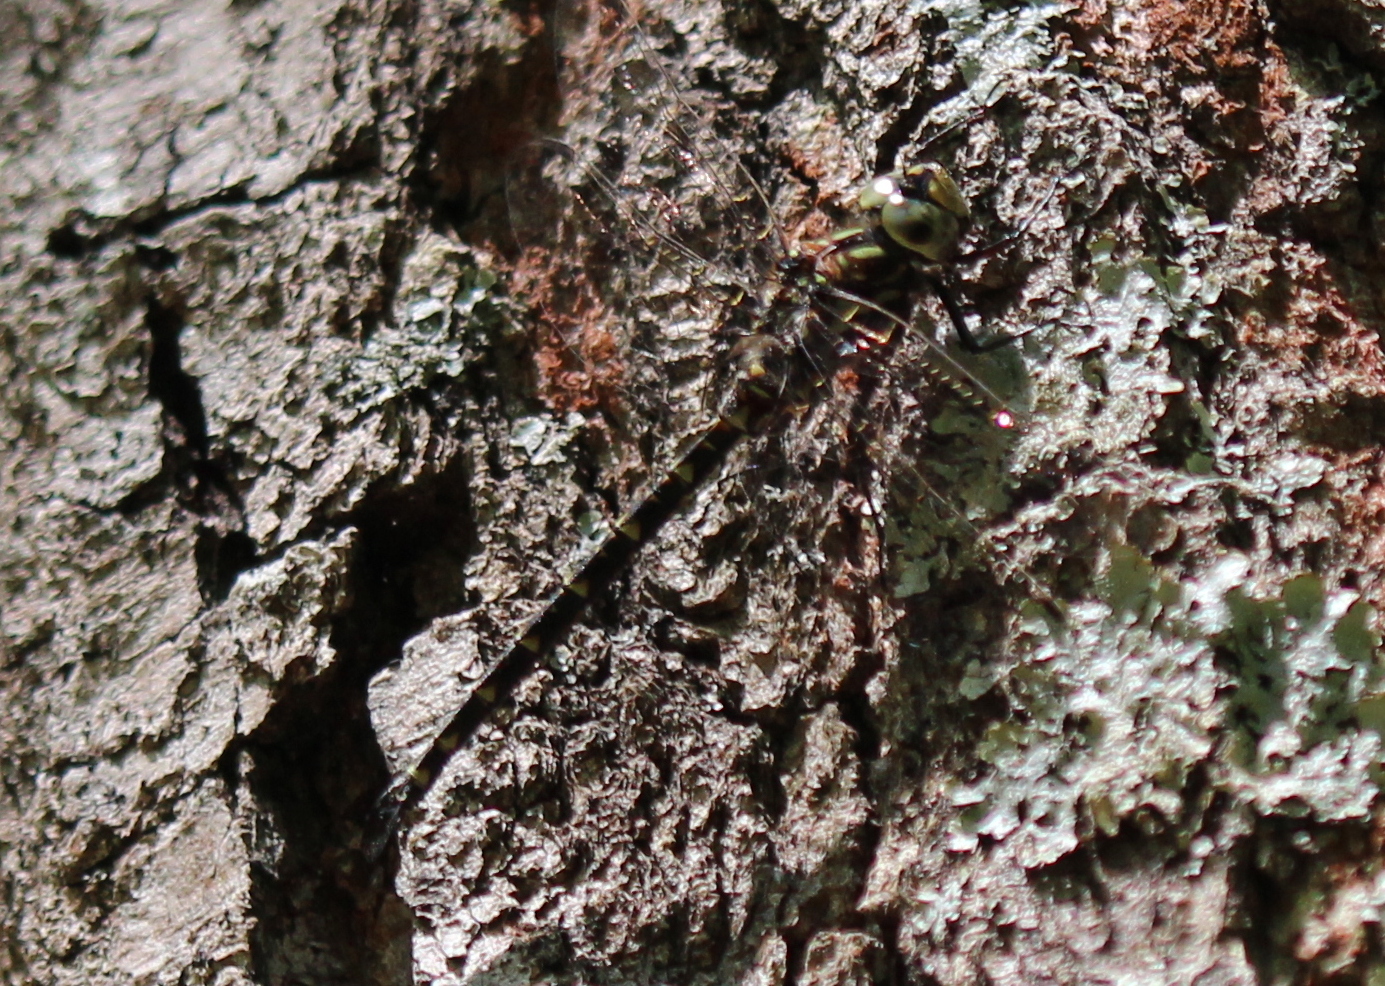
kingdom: Animalia
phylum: Arthropoda
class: Insecta
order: Odonata
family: Aeshnidae
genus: Gomphaeschna
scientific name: Gomphaeschna furcillata
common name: Harlequin darner
